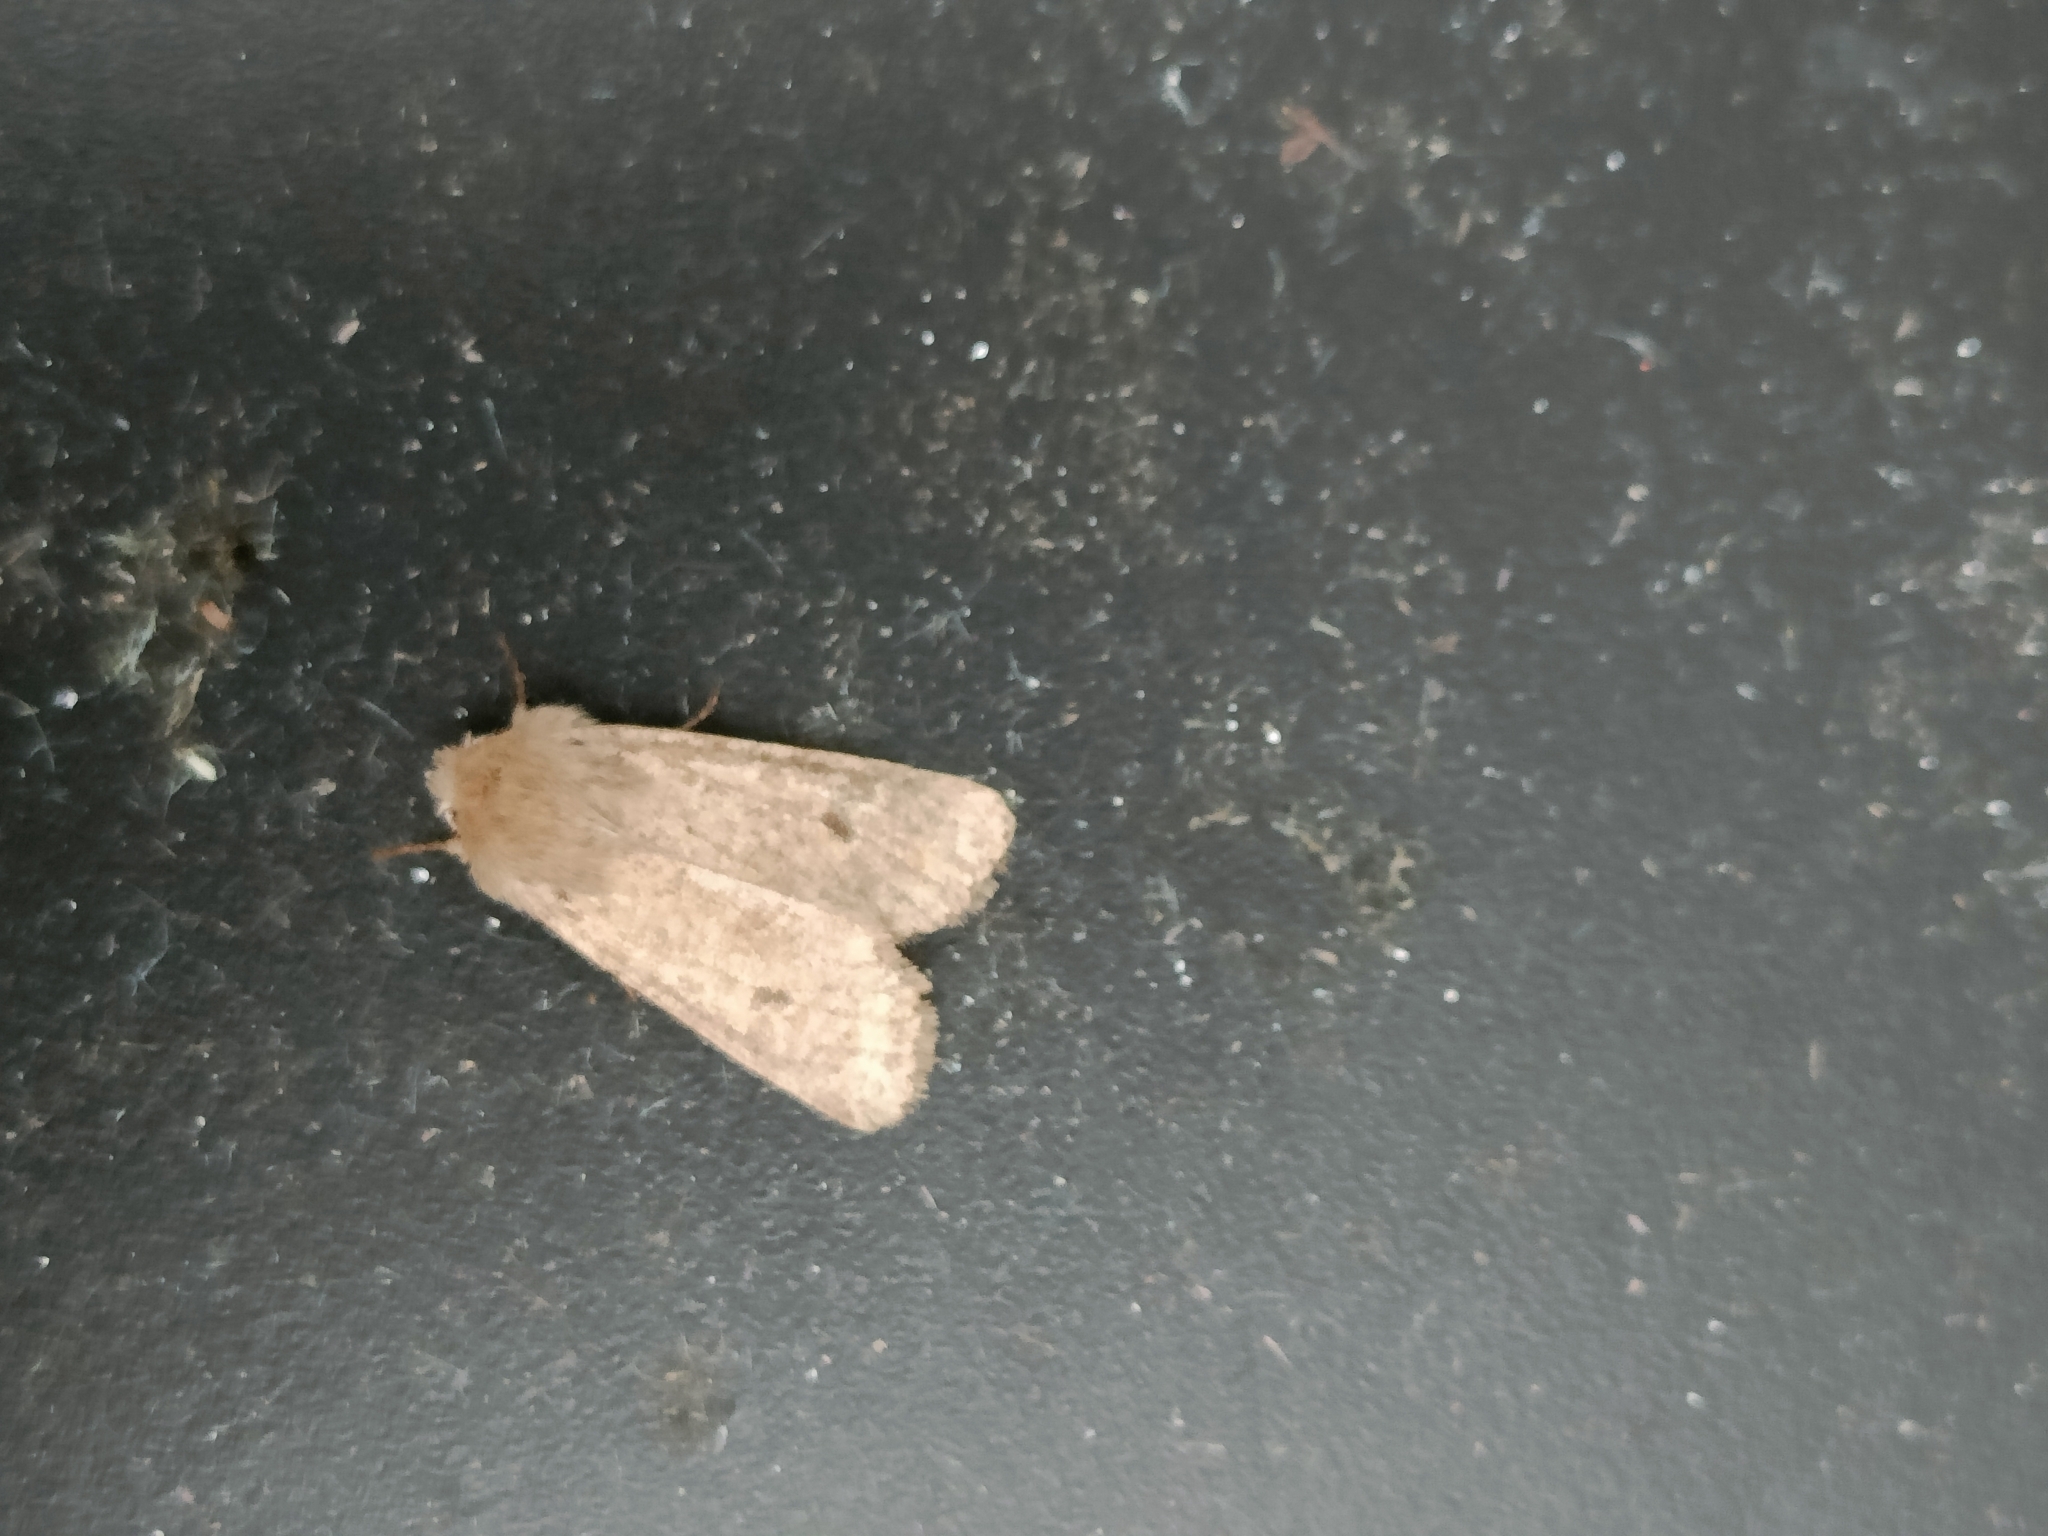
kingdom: Animalia
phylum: Arthropoda
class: Insecta
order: Lepidoptera
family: Noctuidae
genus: Orthosia
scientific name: Orthosia cruda
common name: Small quaker
